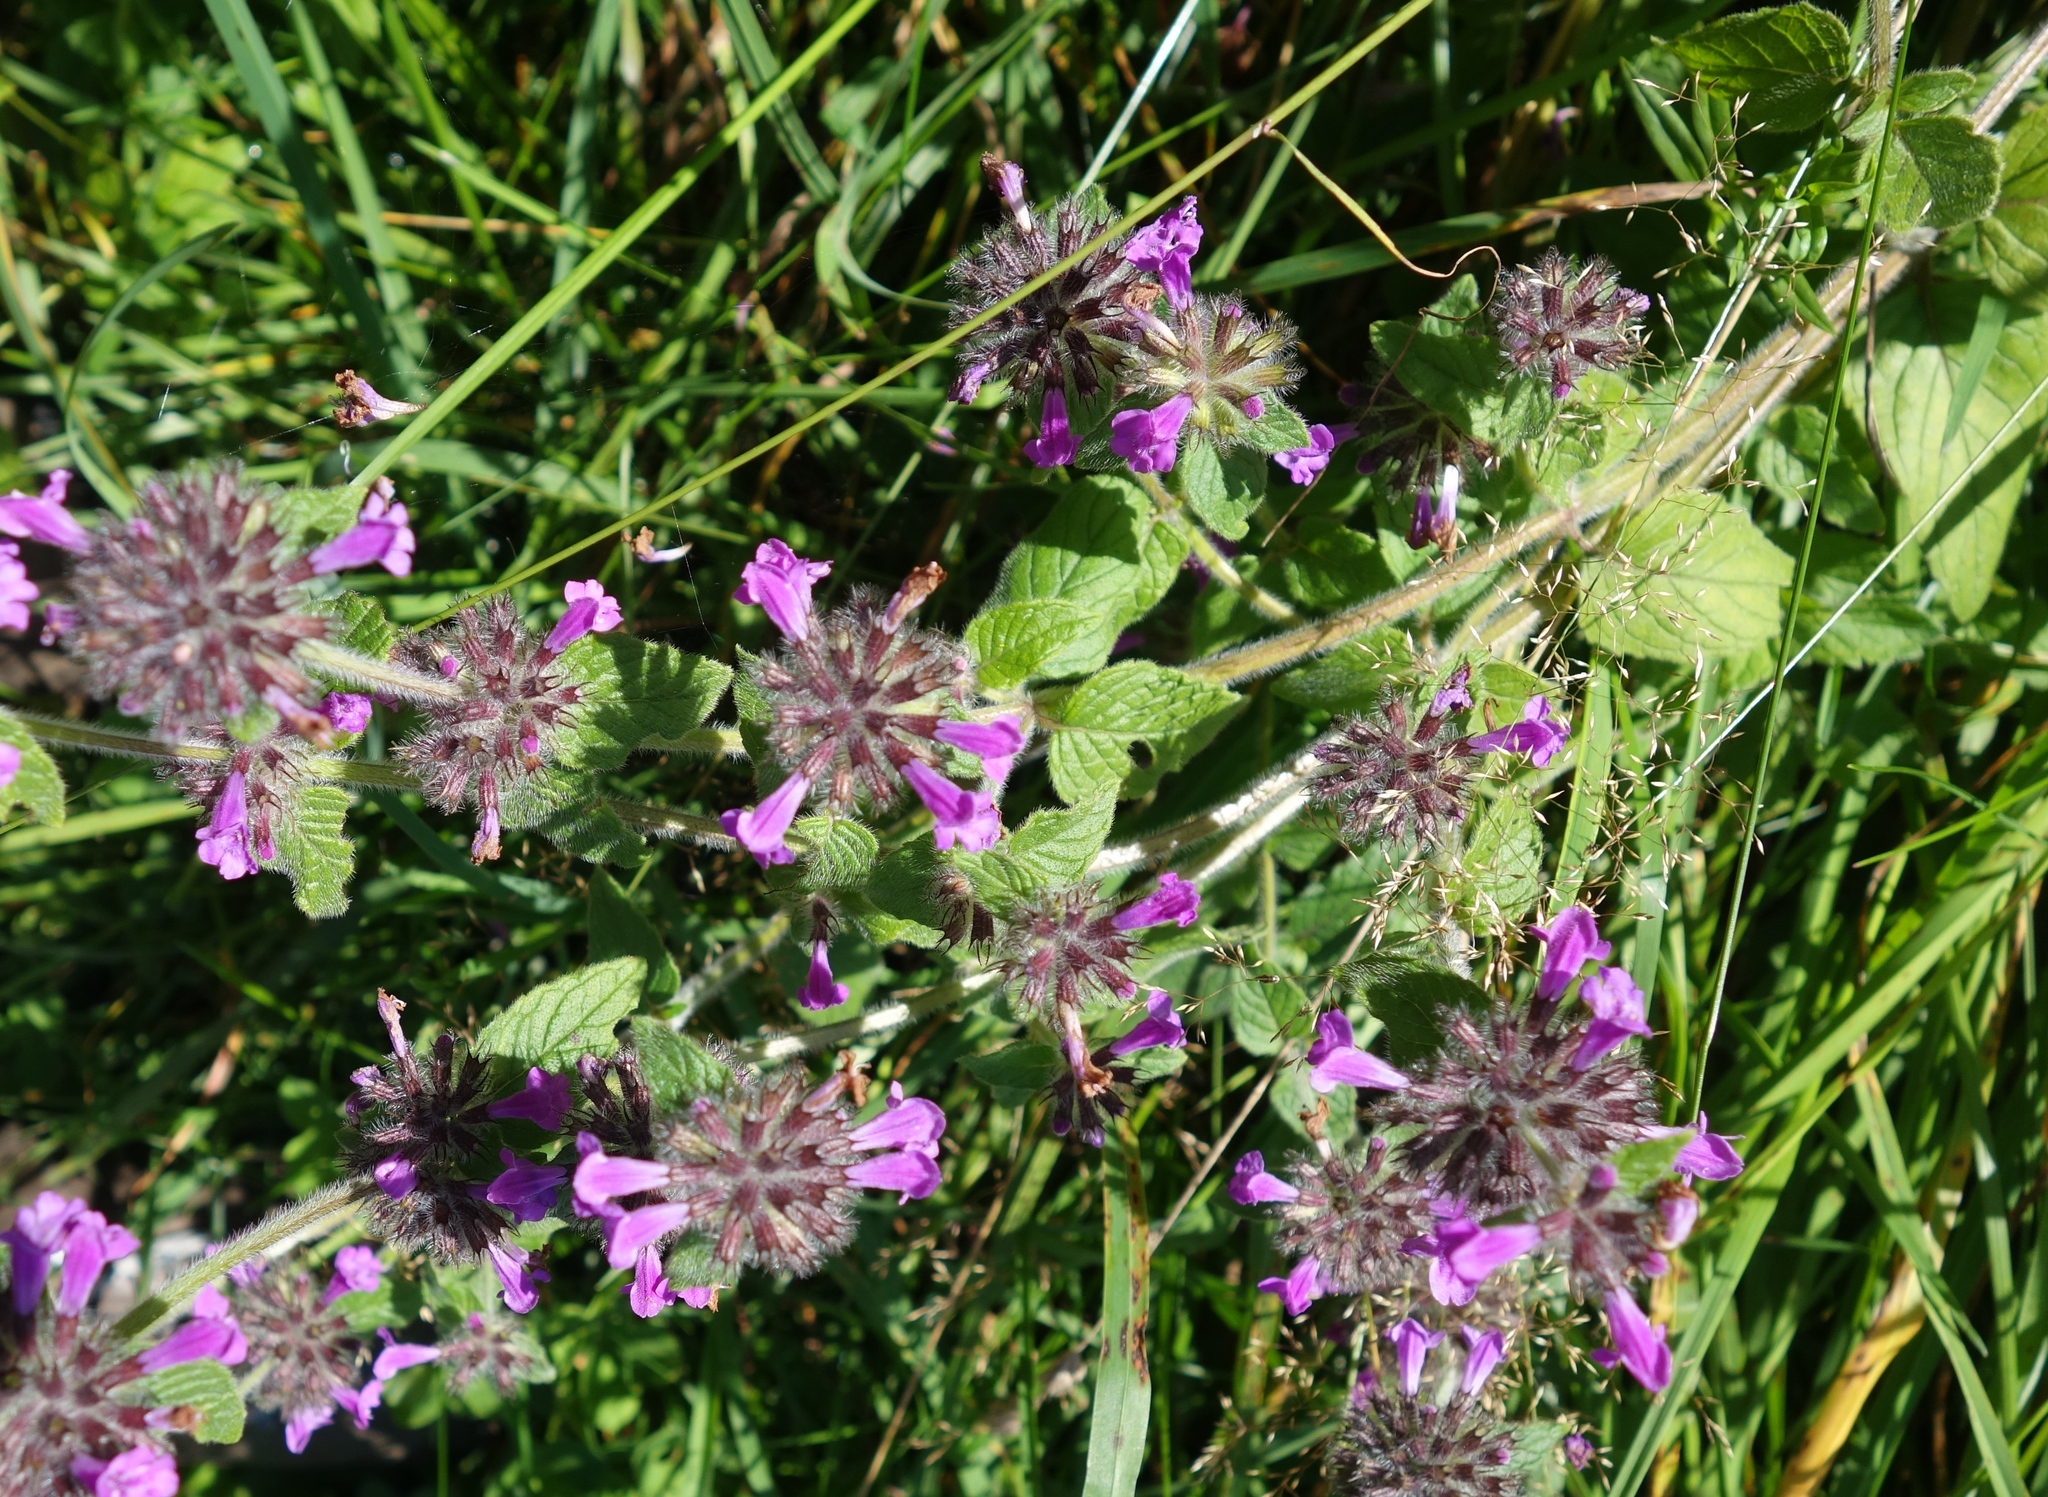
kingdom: Plantae
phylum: Tracheophyta
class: Magnoliopsida
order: Lamiales
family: Lamiaceae
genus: Clinopodium
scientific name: Clinopodium vulgare
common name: Wild basil
